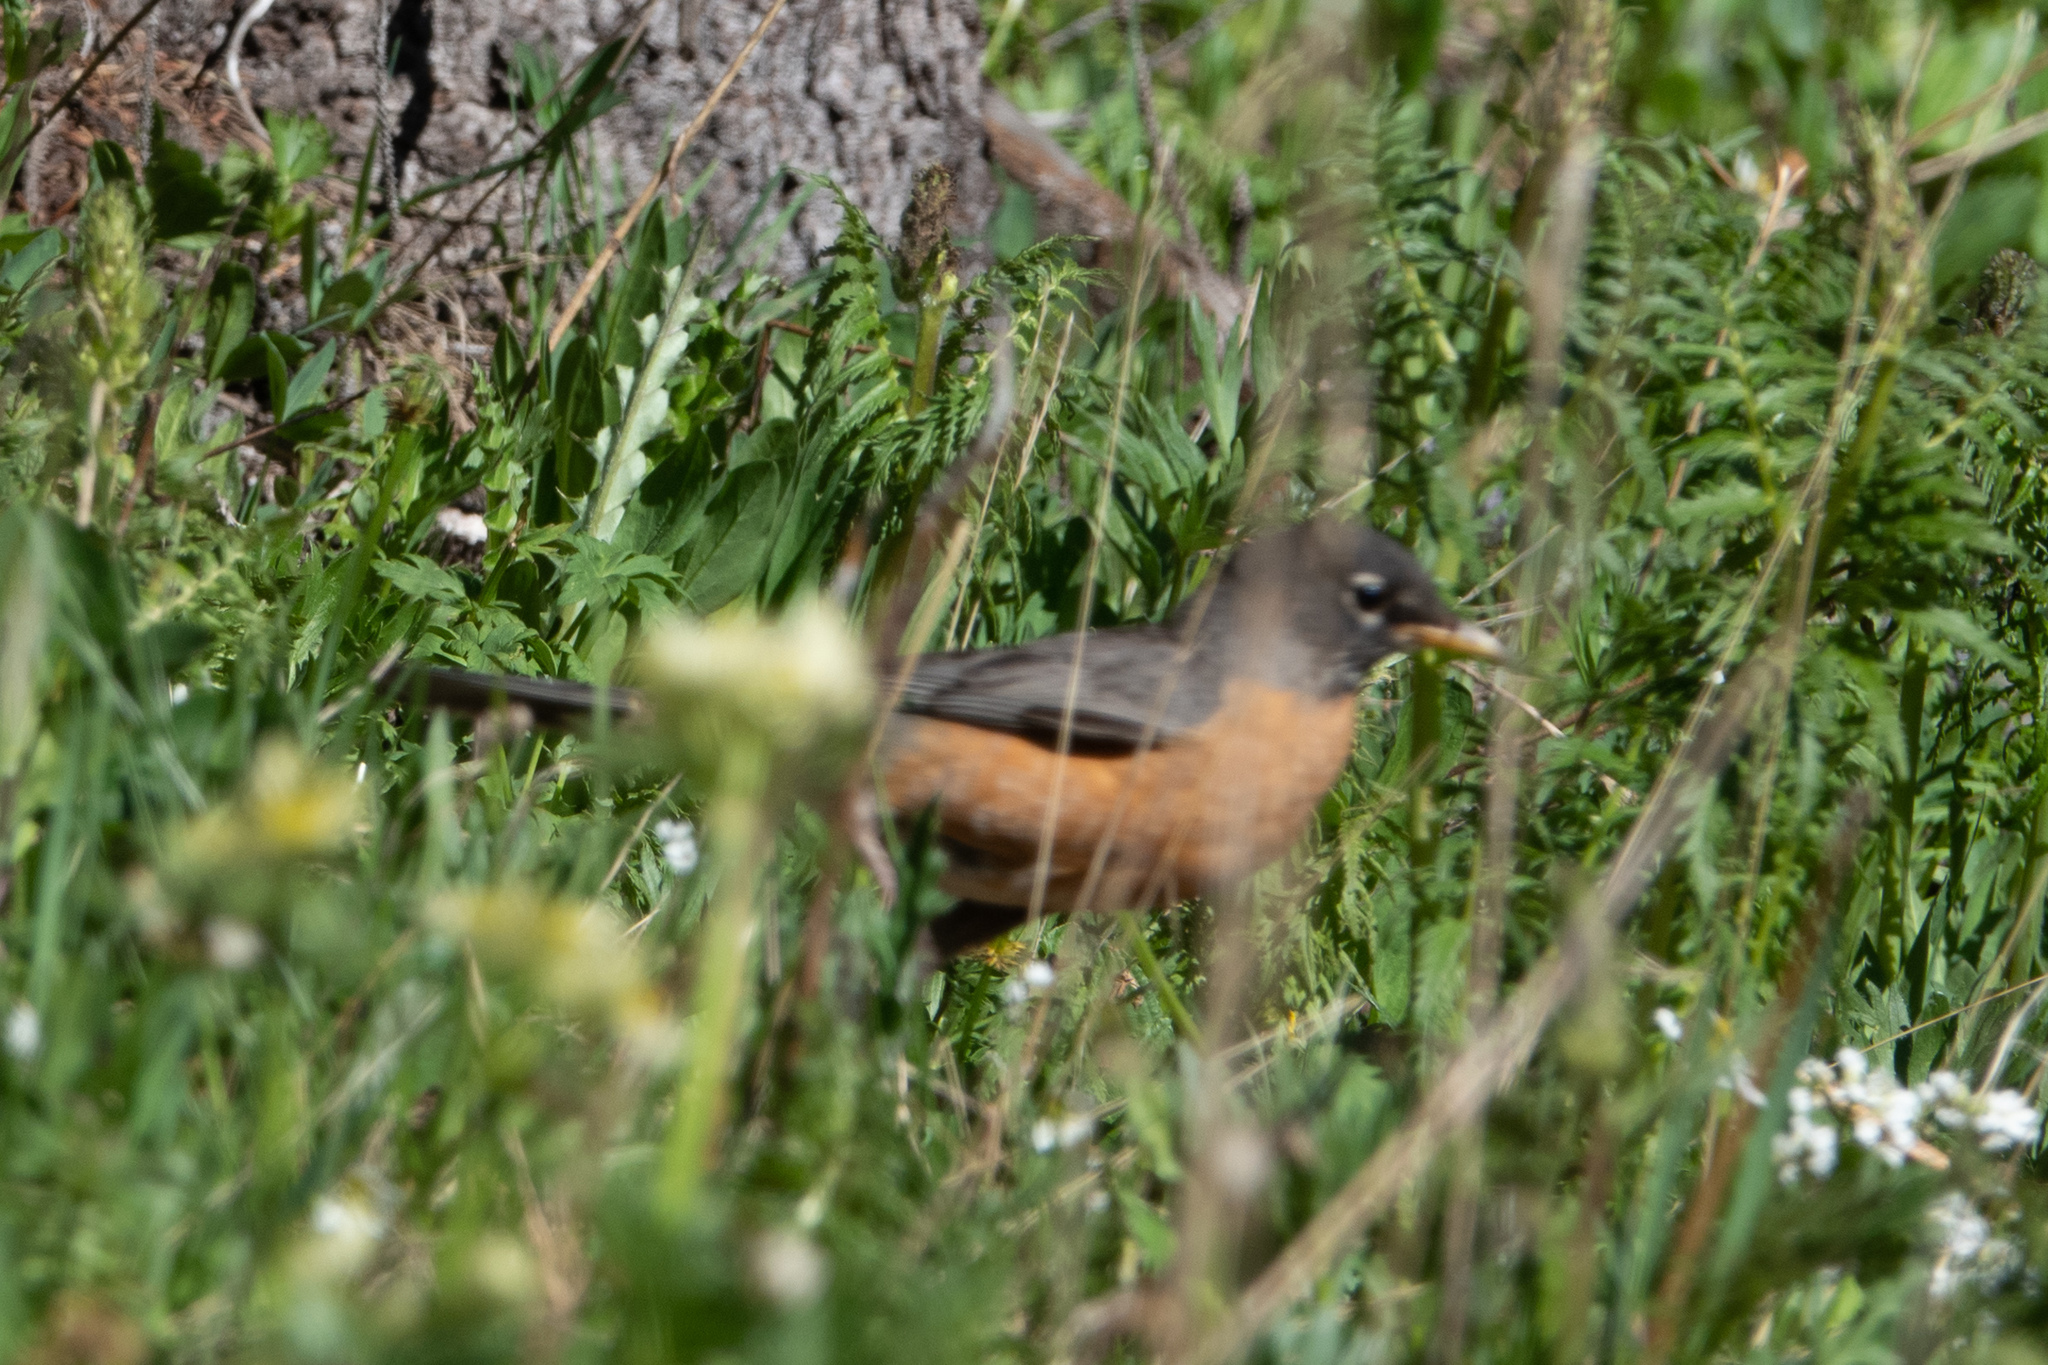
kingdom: Animalia
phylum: Chordata
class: Aves
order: Passeriformes
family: Turdidae
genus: Turdus
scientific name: Turdus migratorius
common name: American robin
